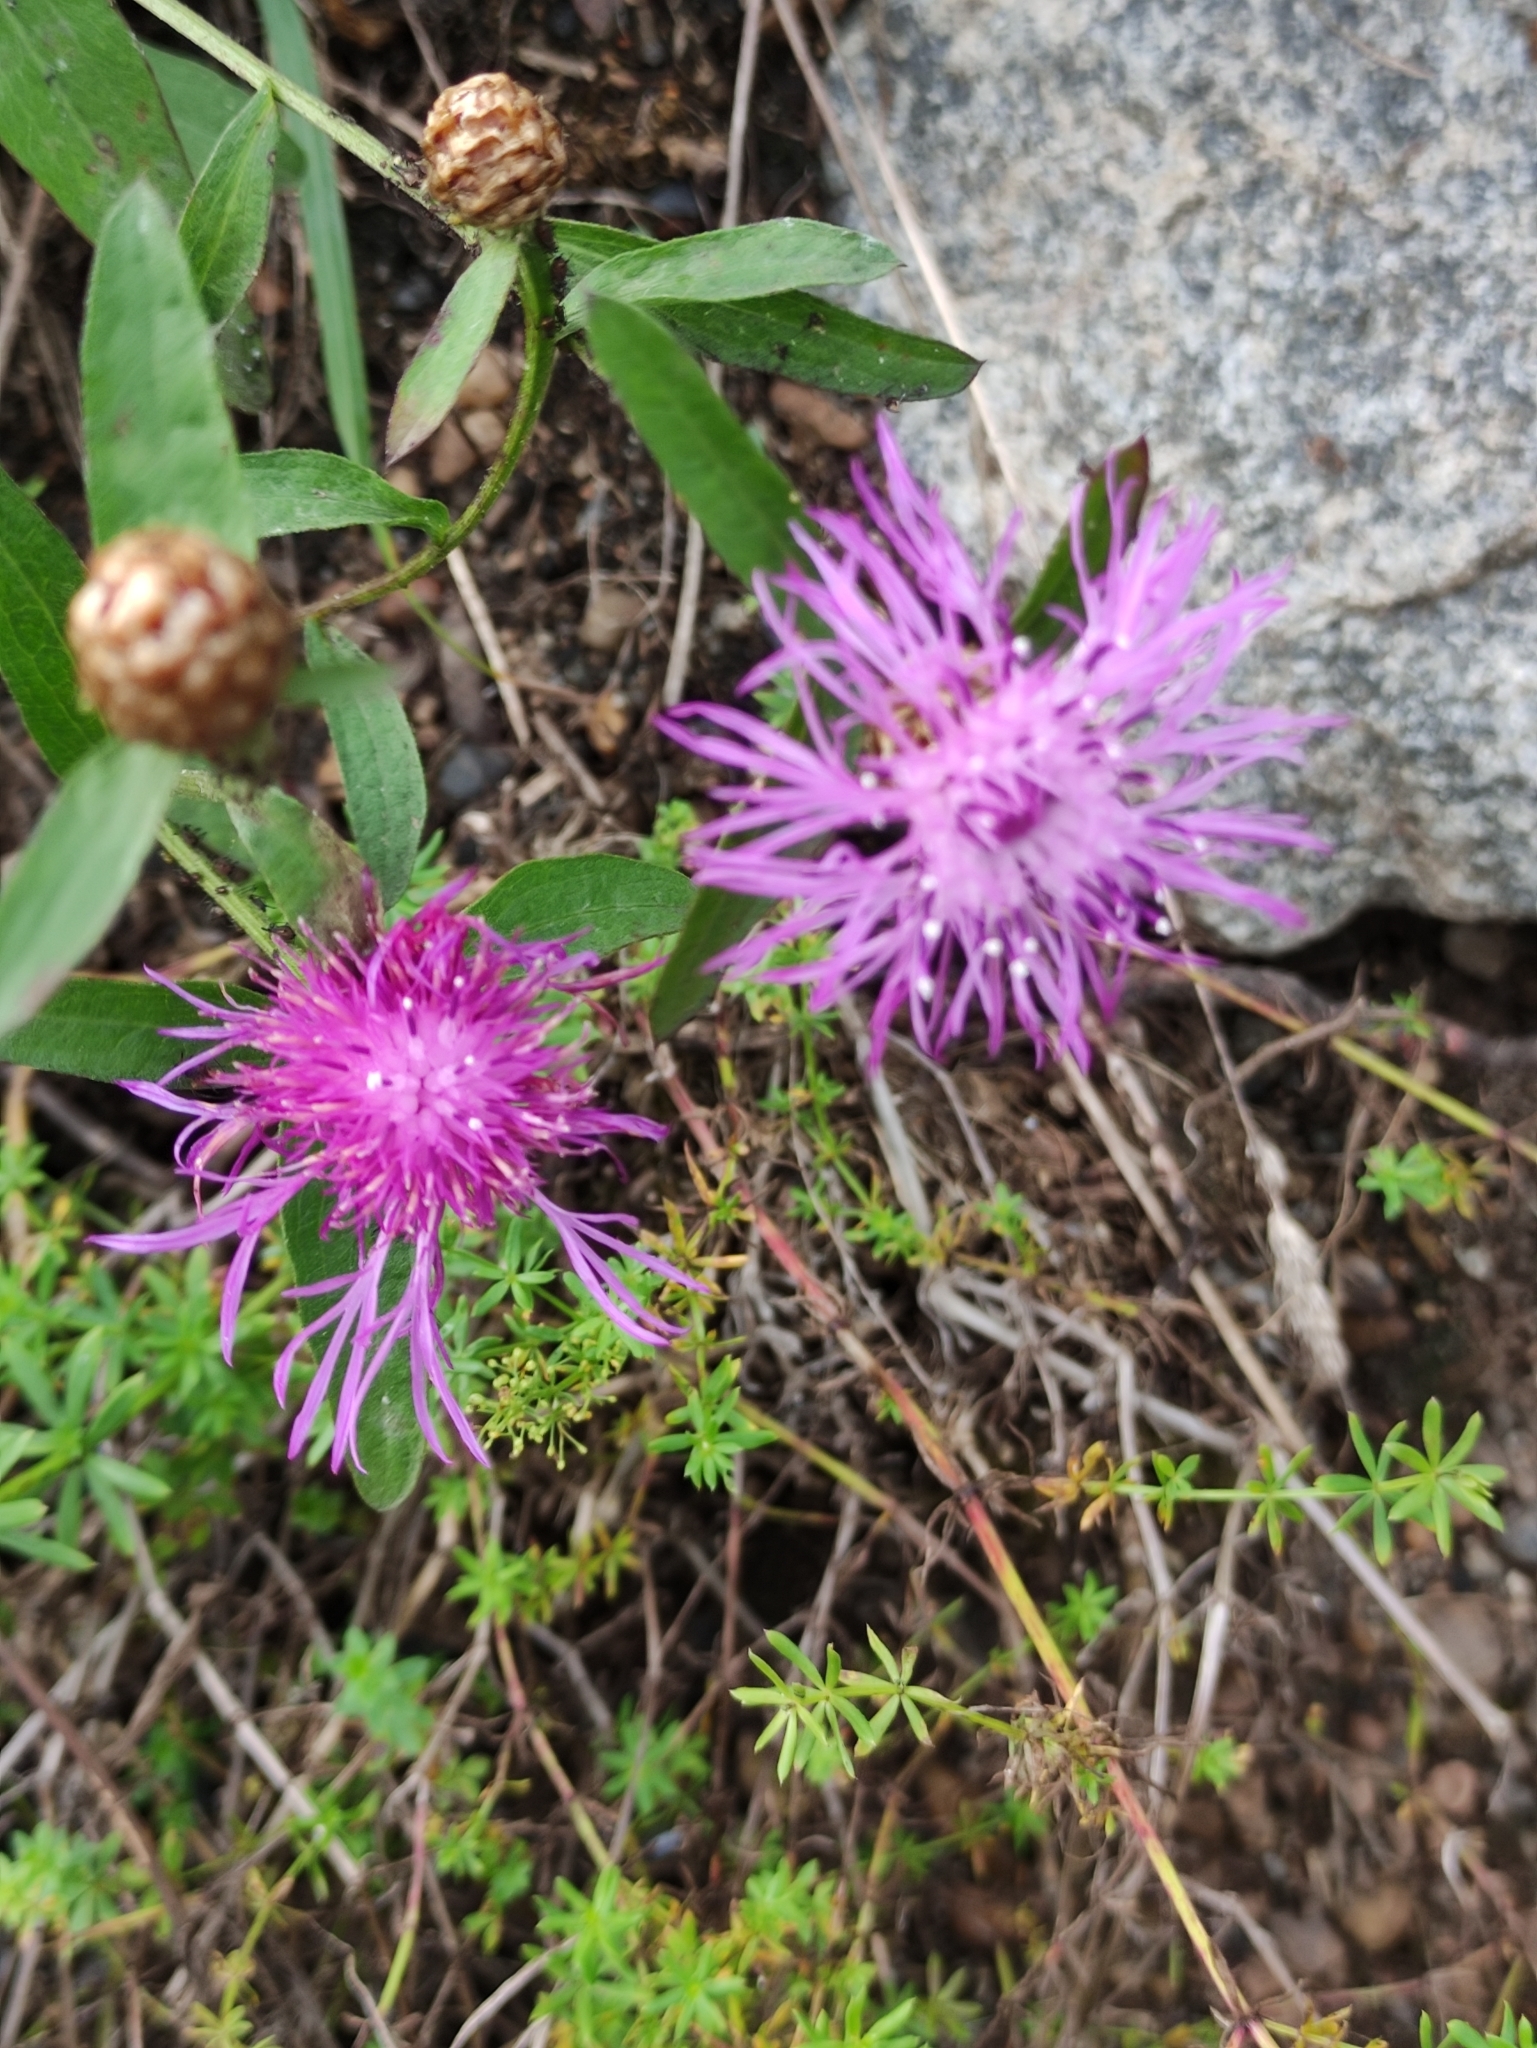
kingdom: Plantae
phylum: Tracheophyta
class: Magnoliopsida
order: Asterales
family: Asteraceae
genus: Centaurea
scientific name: Centaurea jacea
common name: Brown knapweed
